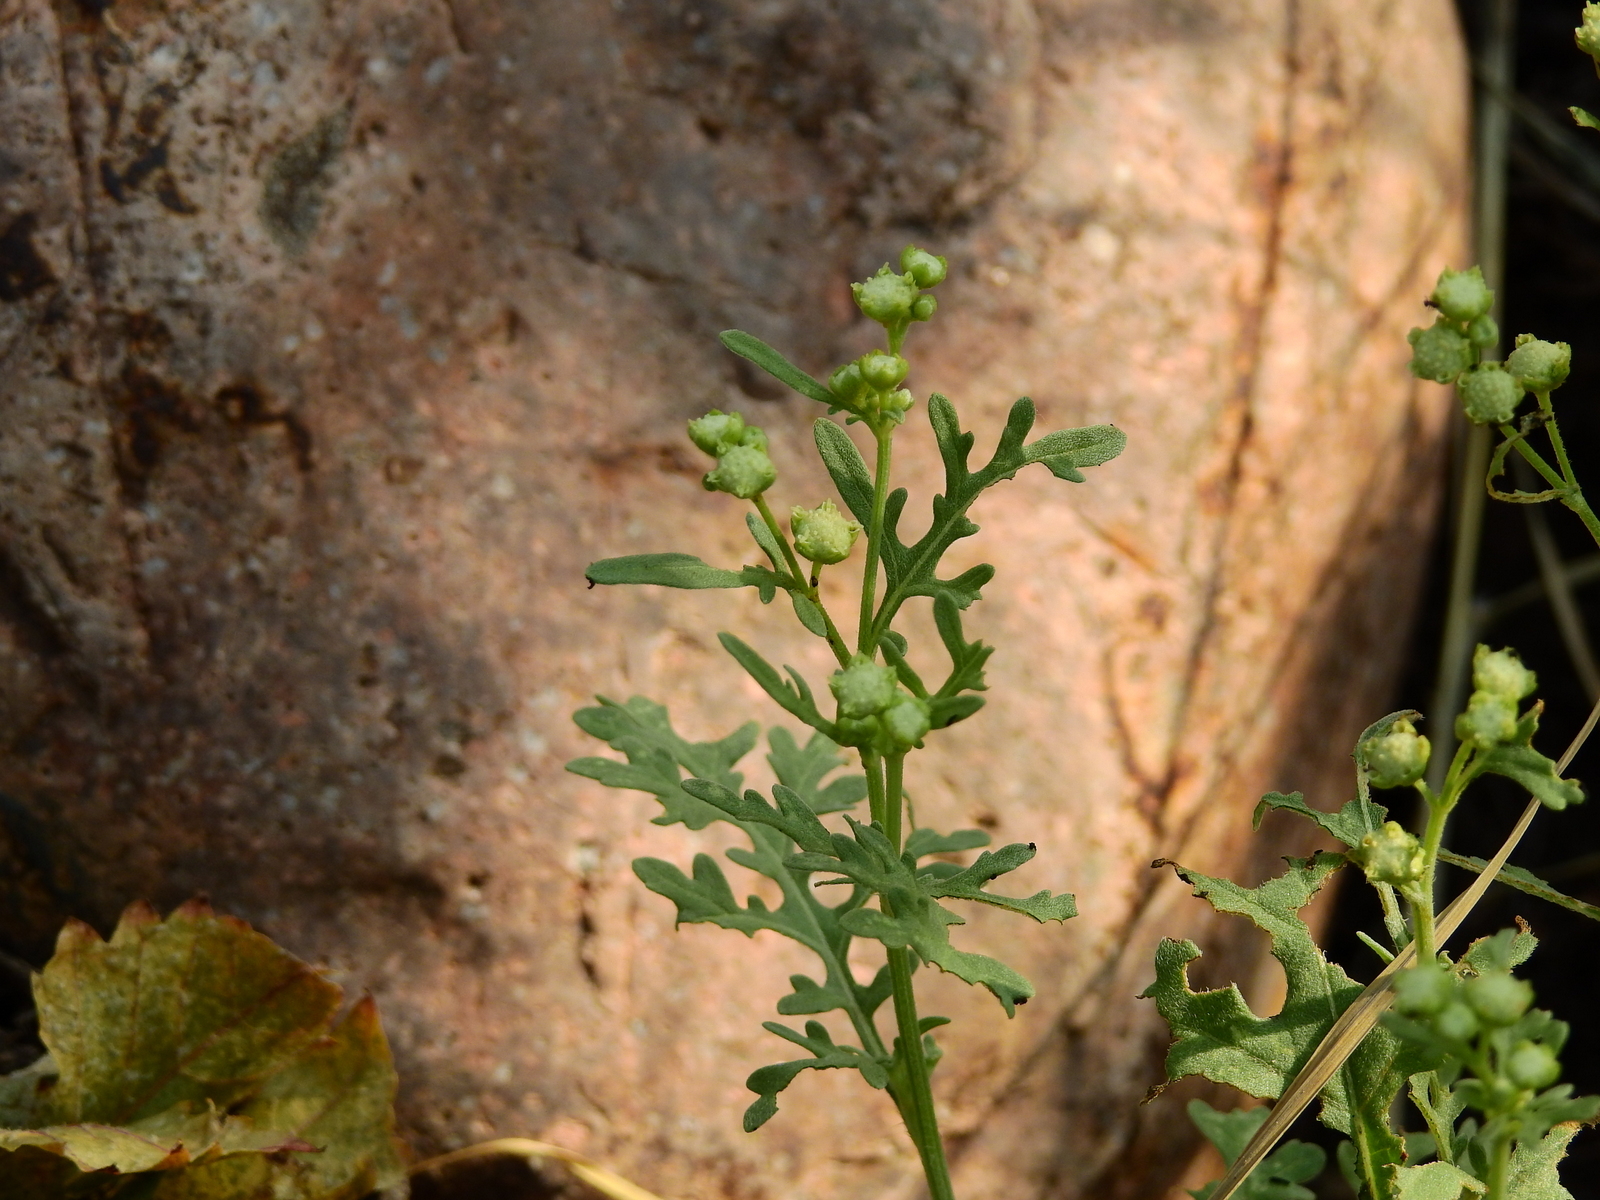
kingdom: Plantae
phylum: Tracheophyta
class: Magnoliopsida
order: Asterales
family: Asteraceae
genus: Parthenium
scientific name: Parthenium hysterophorus
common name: Santa maria feverfew
